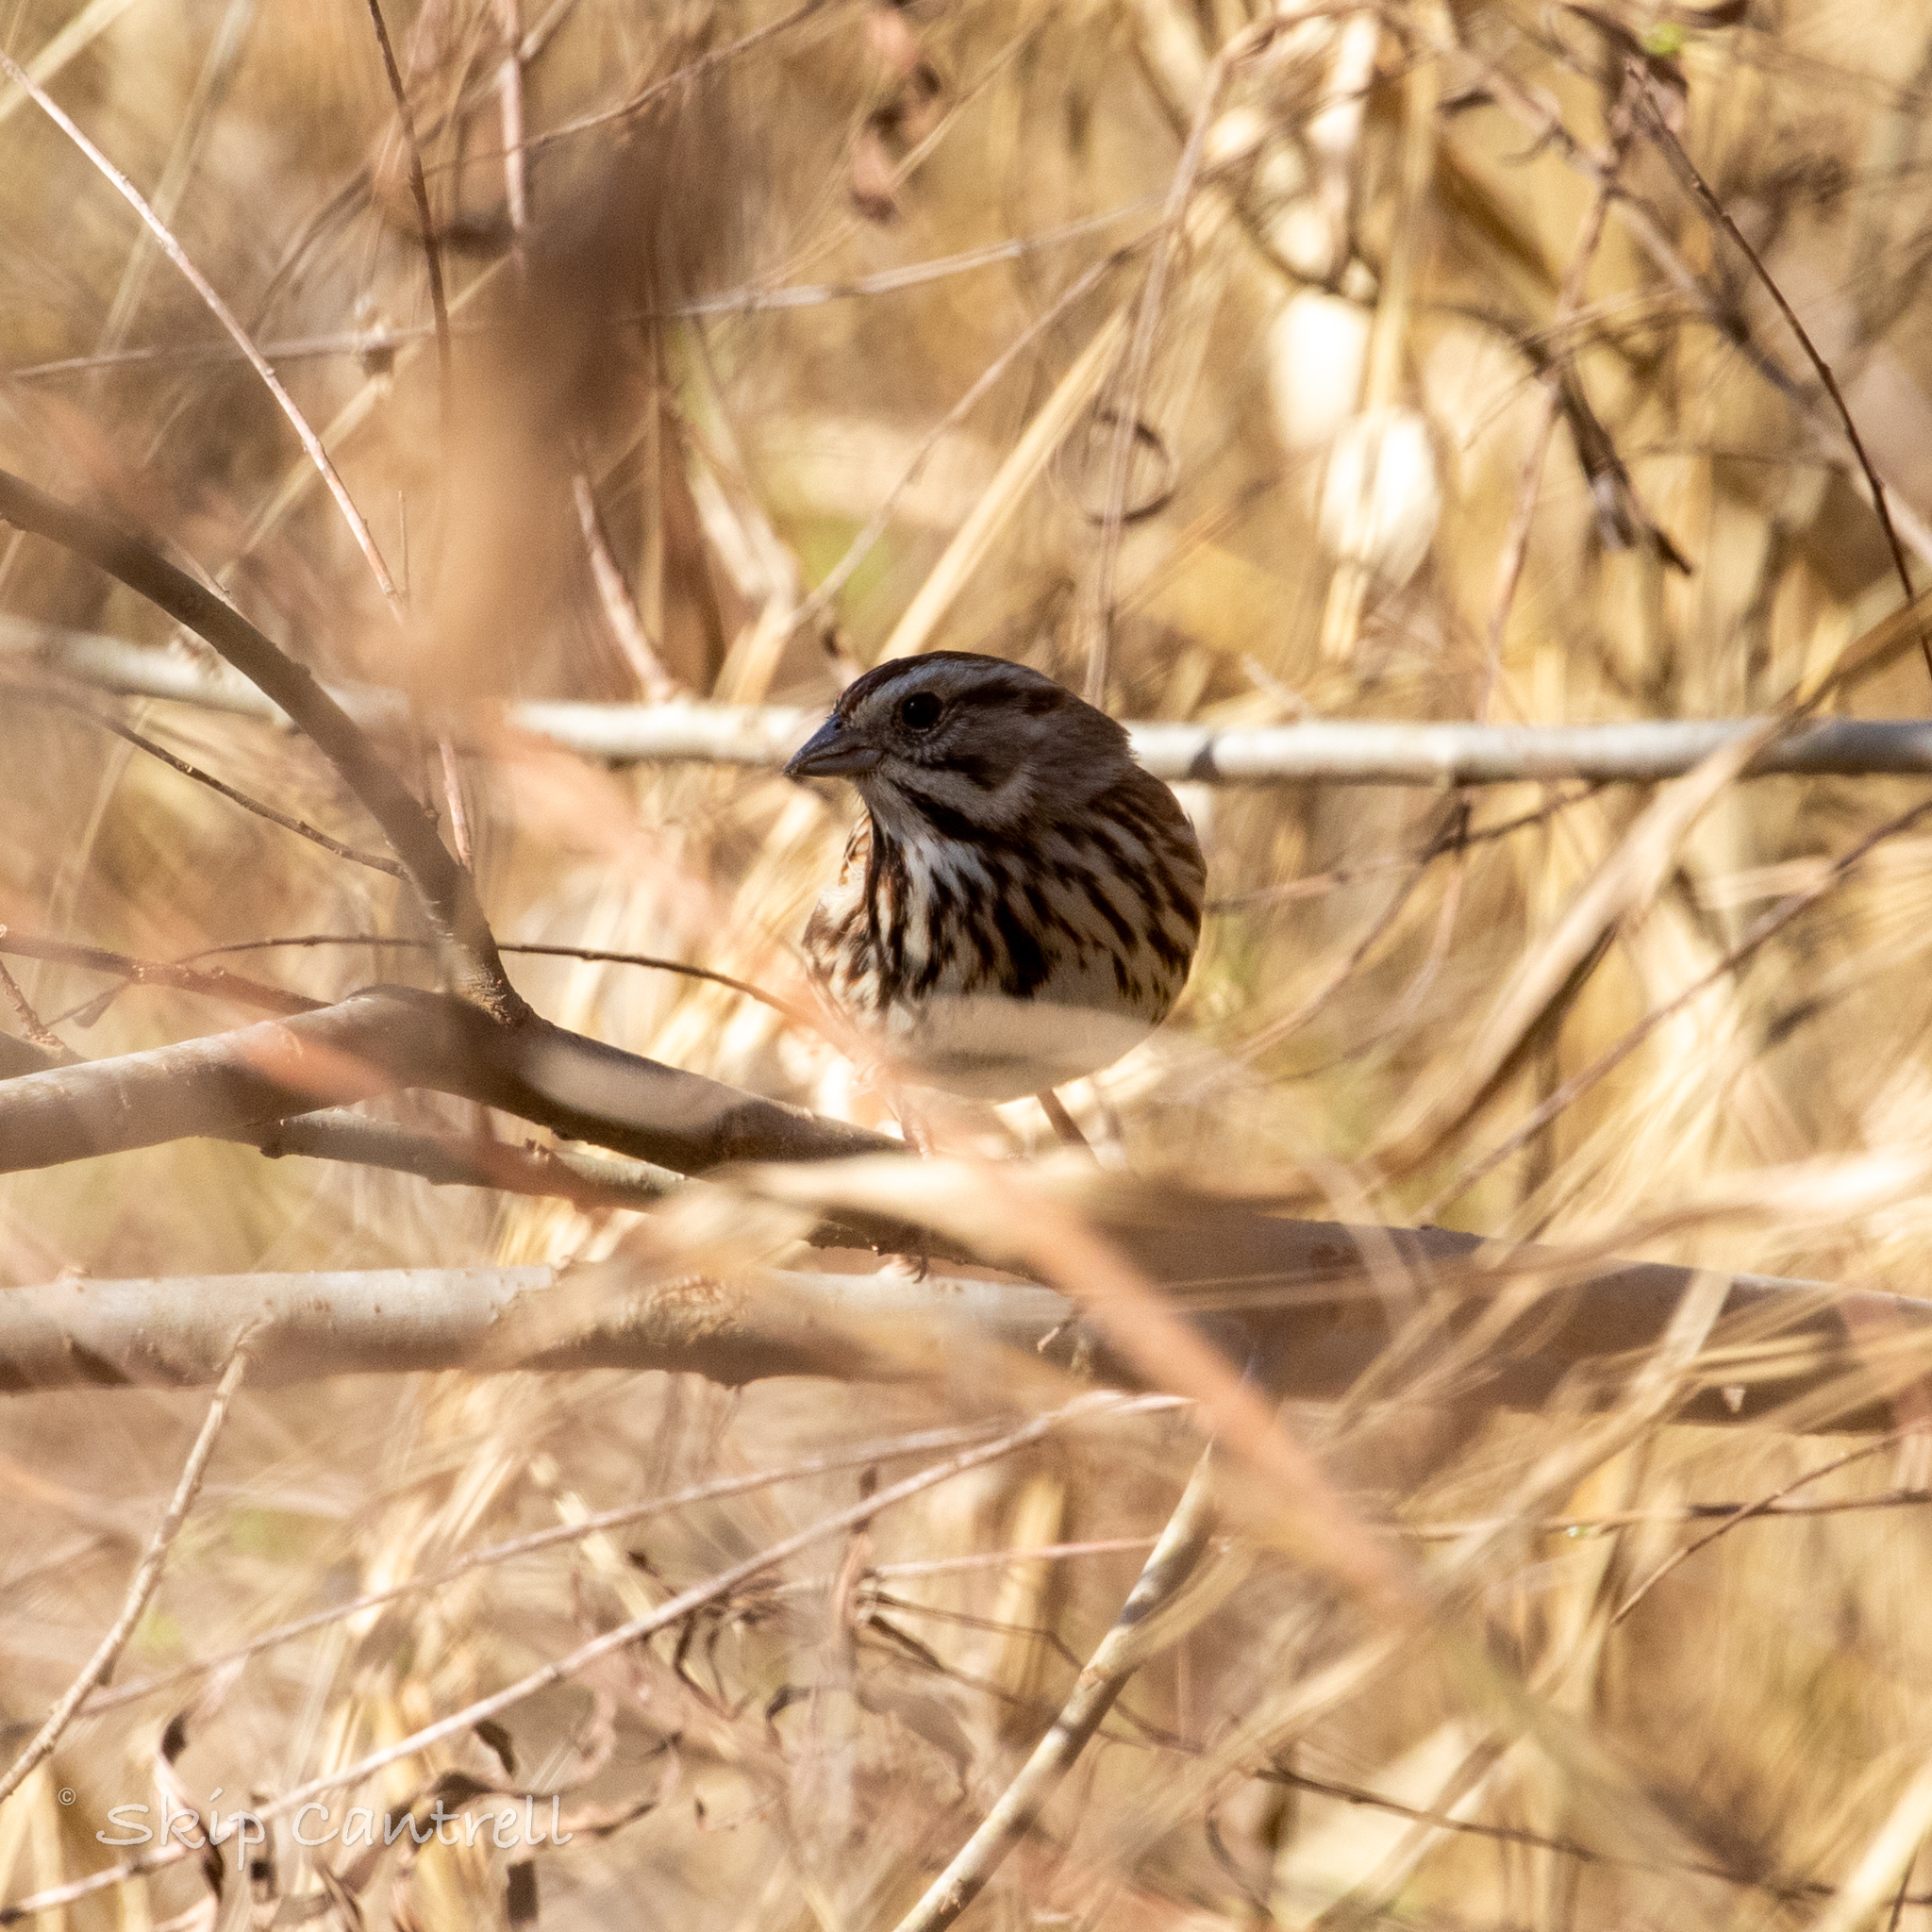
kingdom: Animalia
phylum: Chordata
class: Aves
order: Passeriformes
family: Passerellidae
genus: Melospiza
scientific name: Melospiza melodia
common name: Song sparrow
